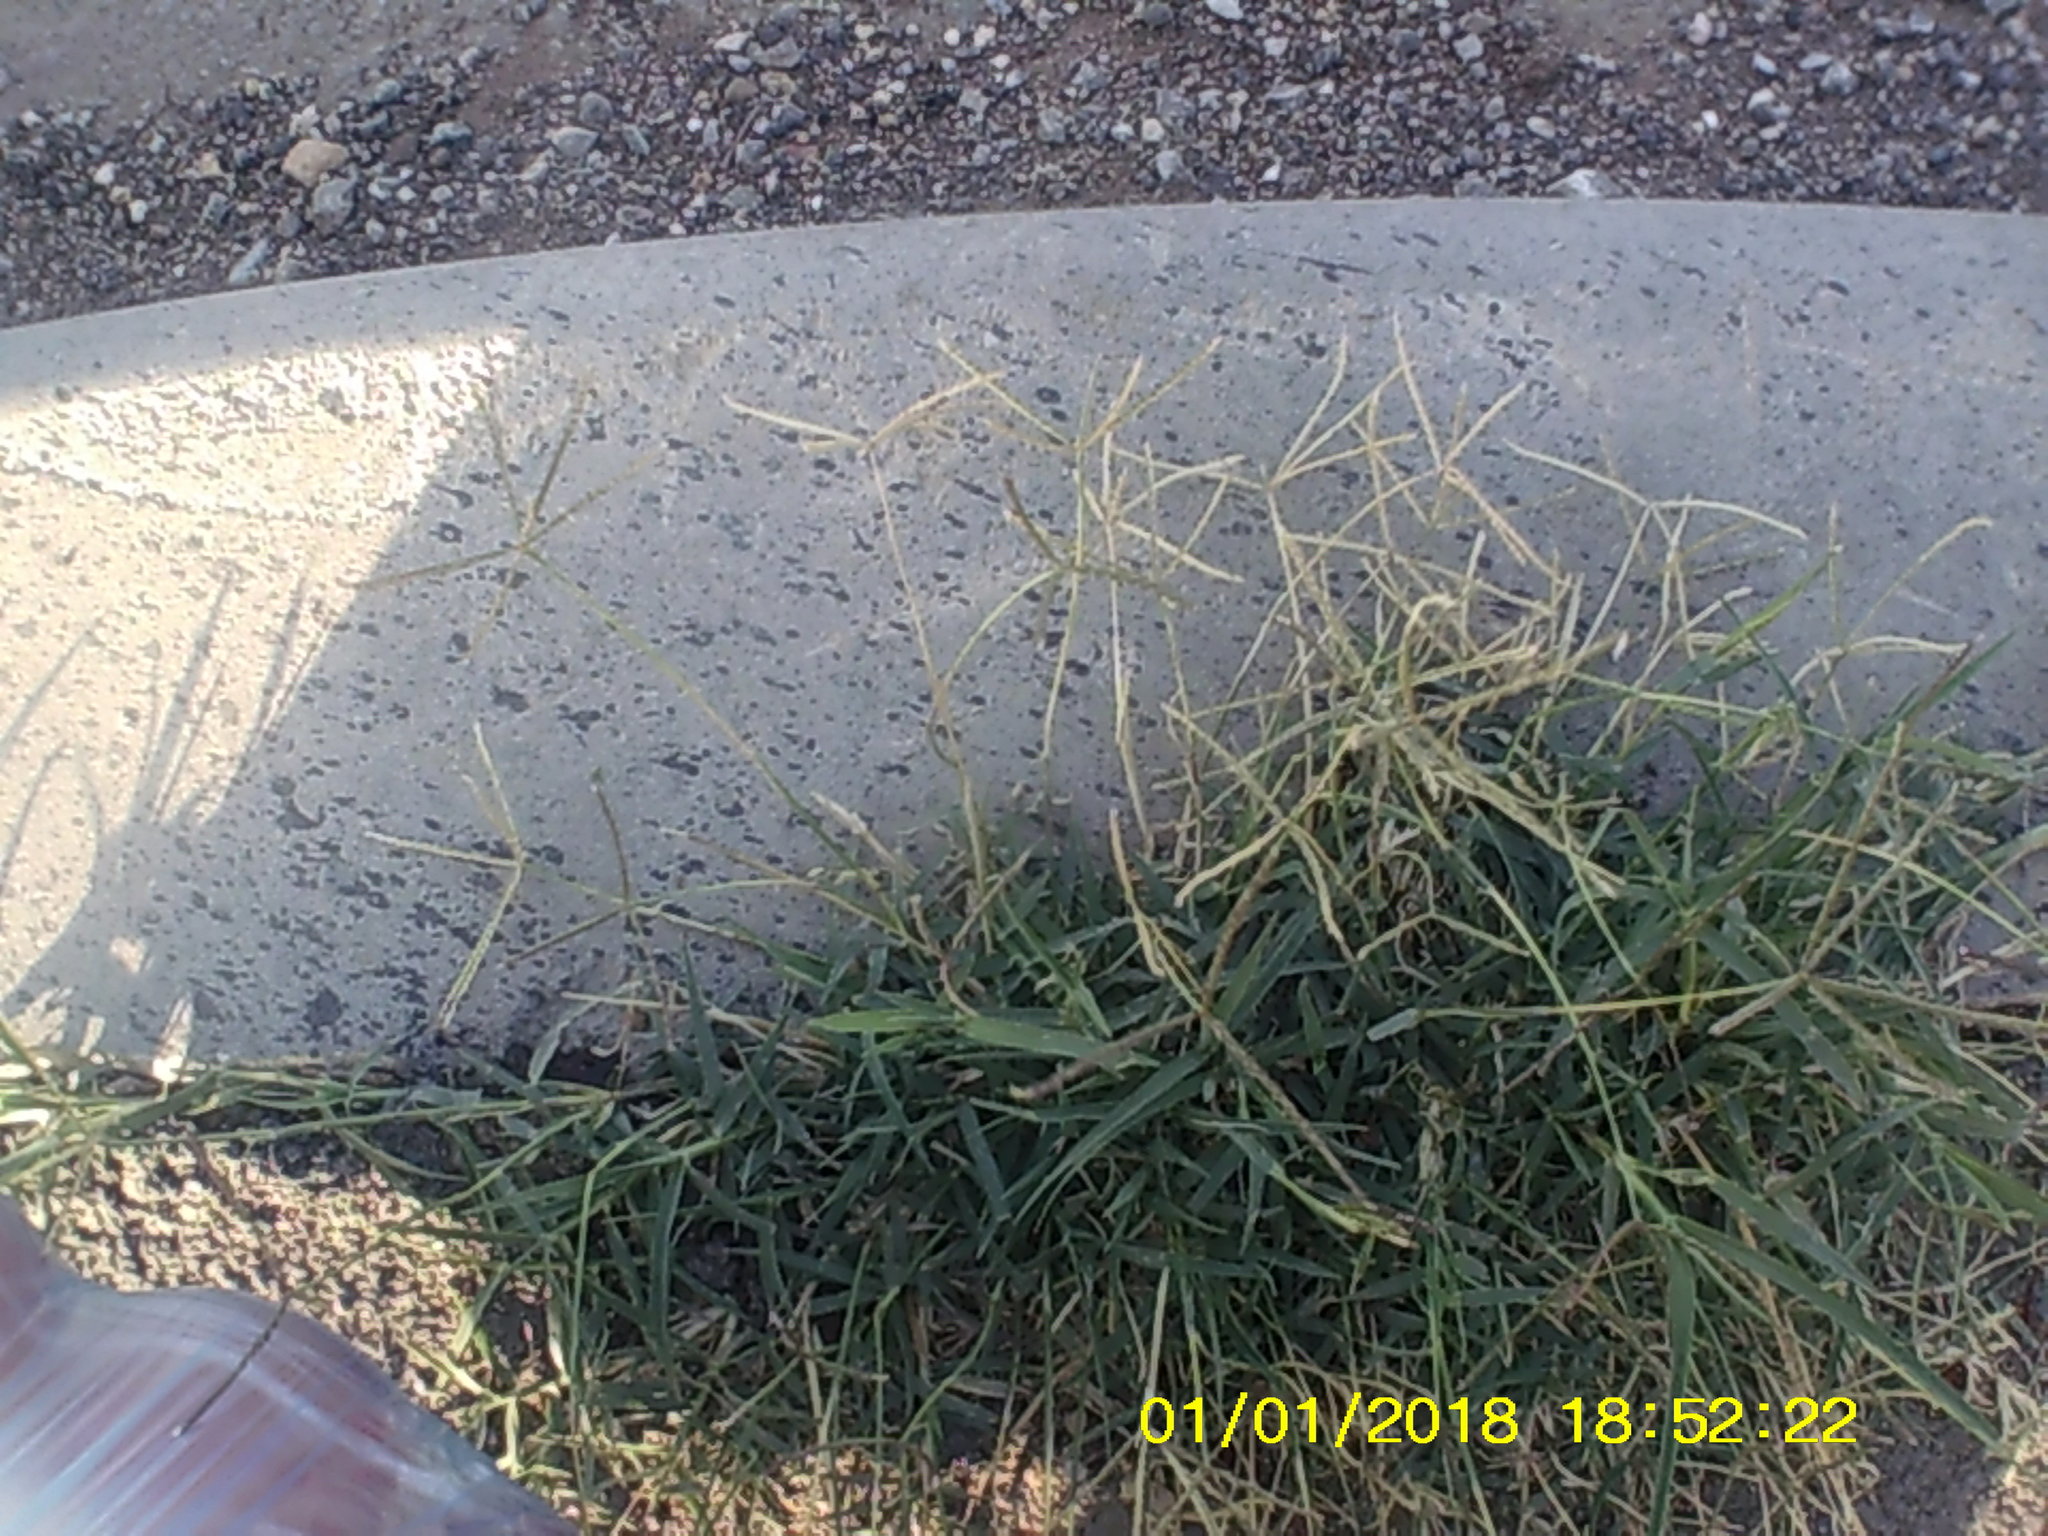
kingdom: Plantae
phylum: Tracheophyta
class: Liliopsida
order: Poales
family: Poaceae
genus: Cynodon
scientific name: Cynodon dactylon
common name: Bermuda grass
